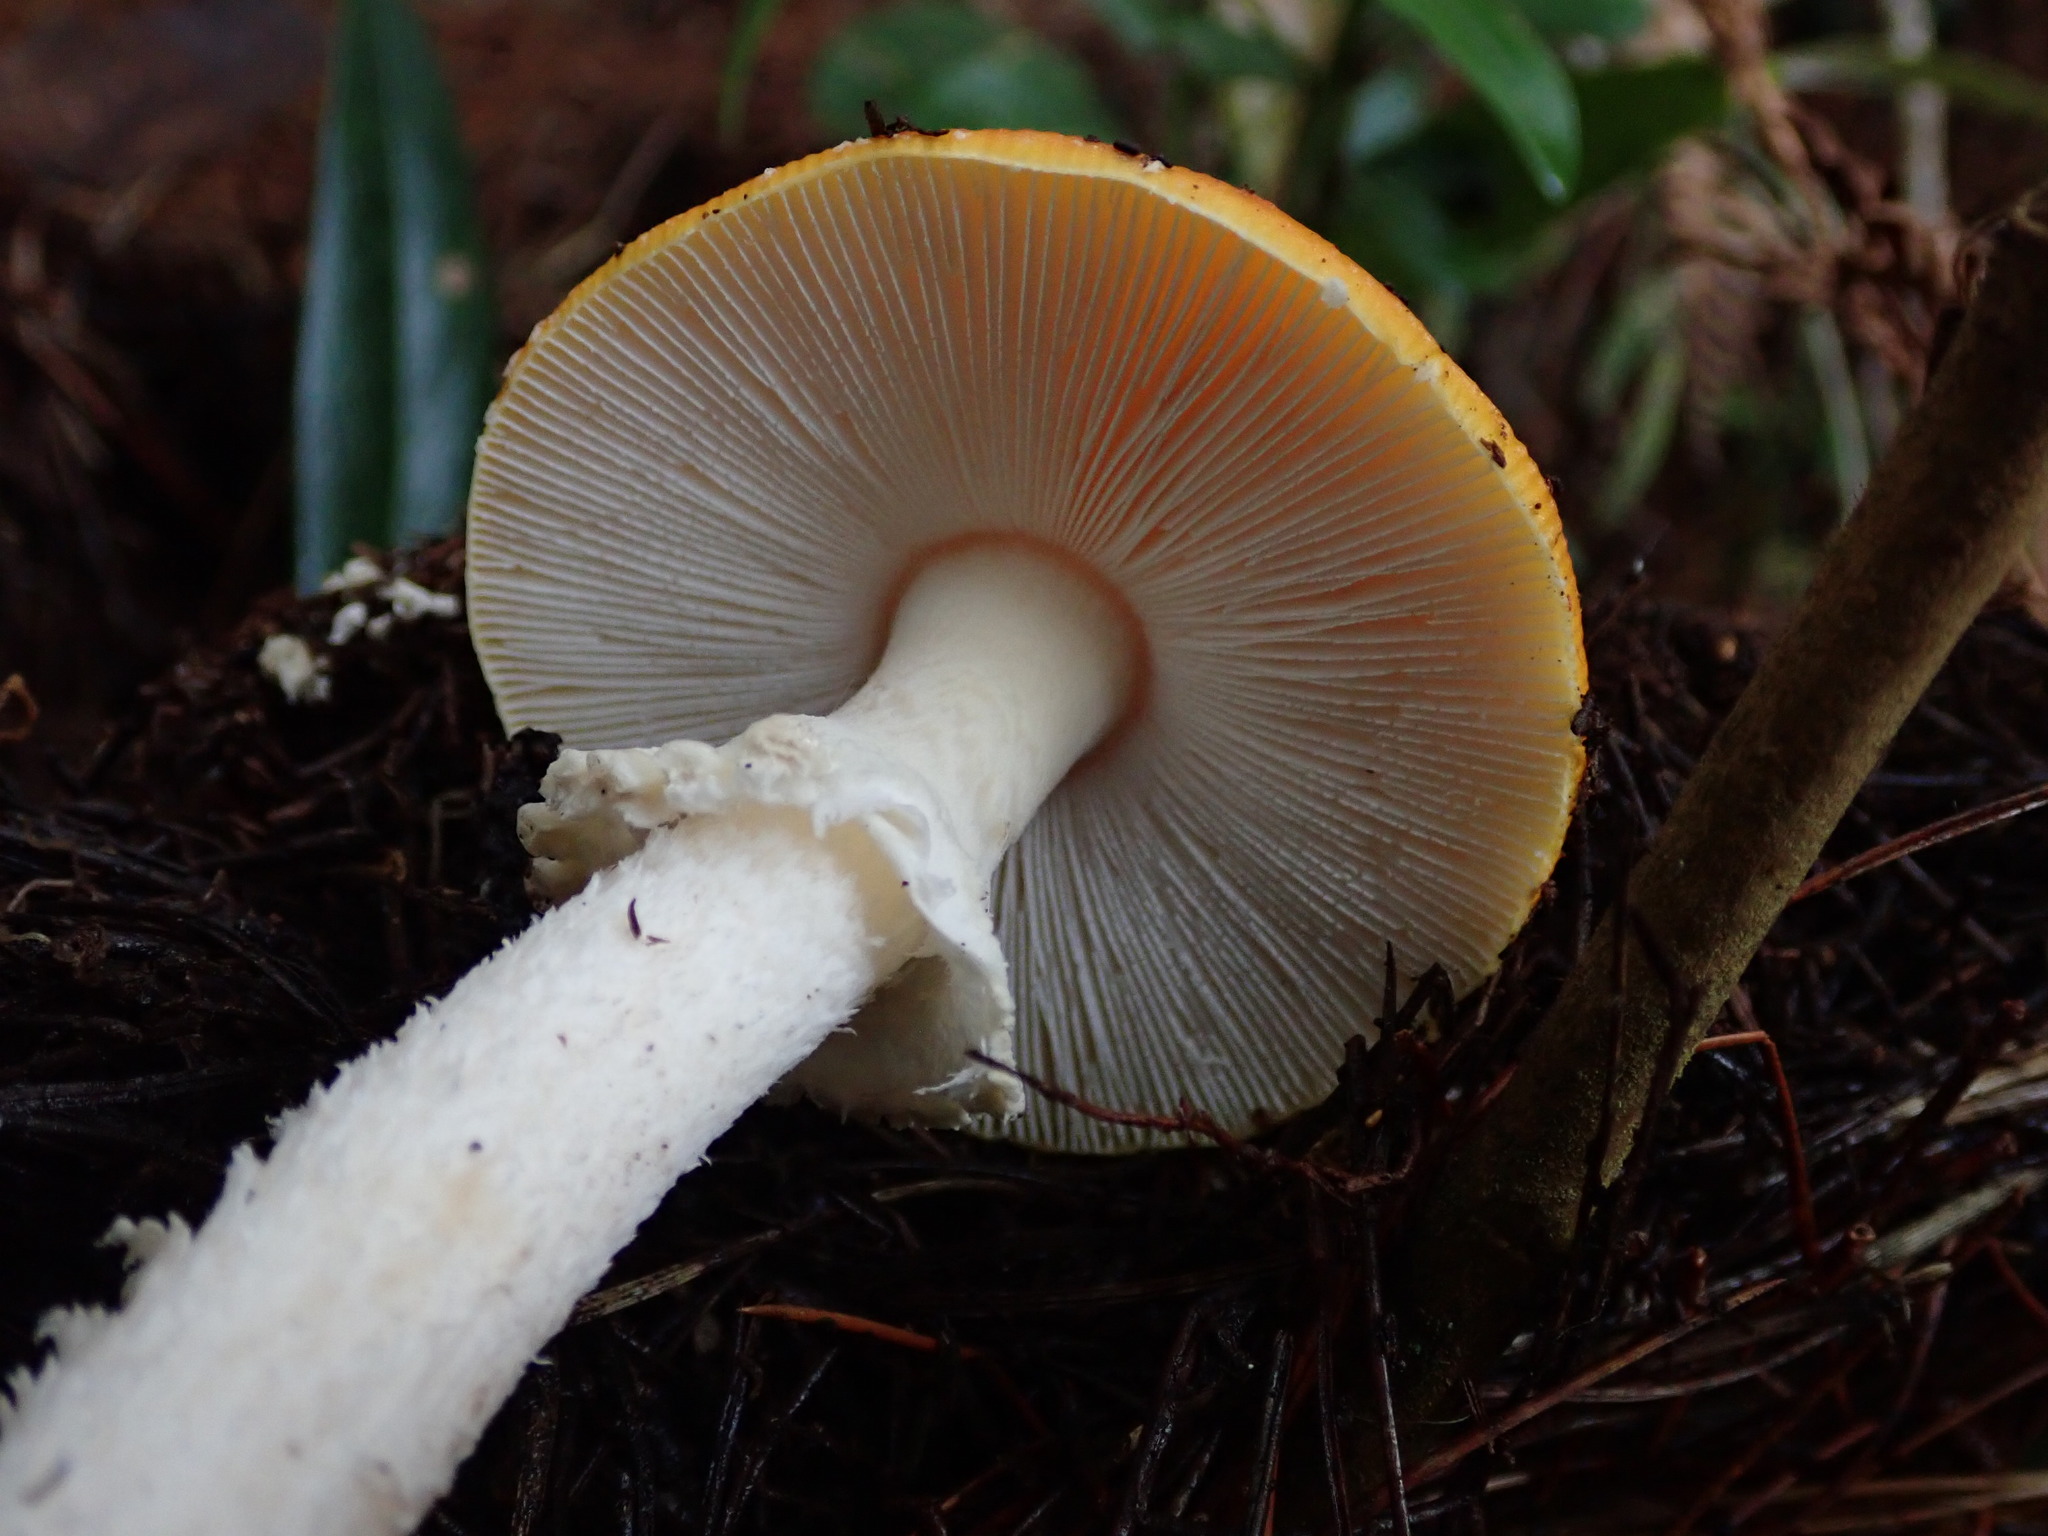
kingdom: Fungi
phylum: Basidiomycota
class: Agaricomycetes
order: Agaricales
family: Amanitaceae
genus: Amanita
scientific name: Amanita muscaria
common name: Fly agaric
